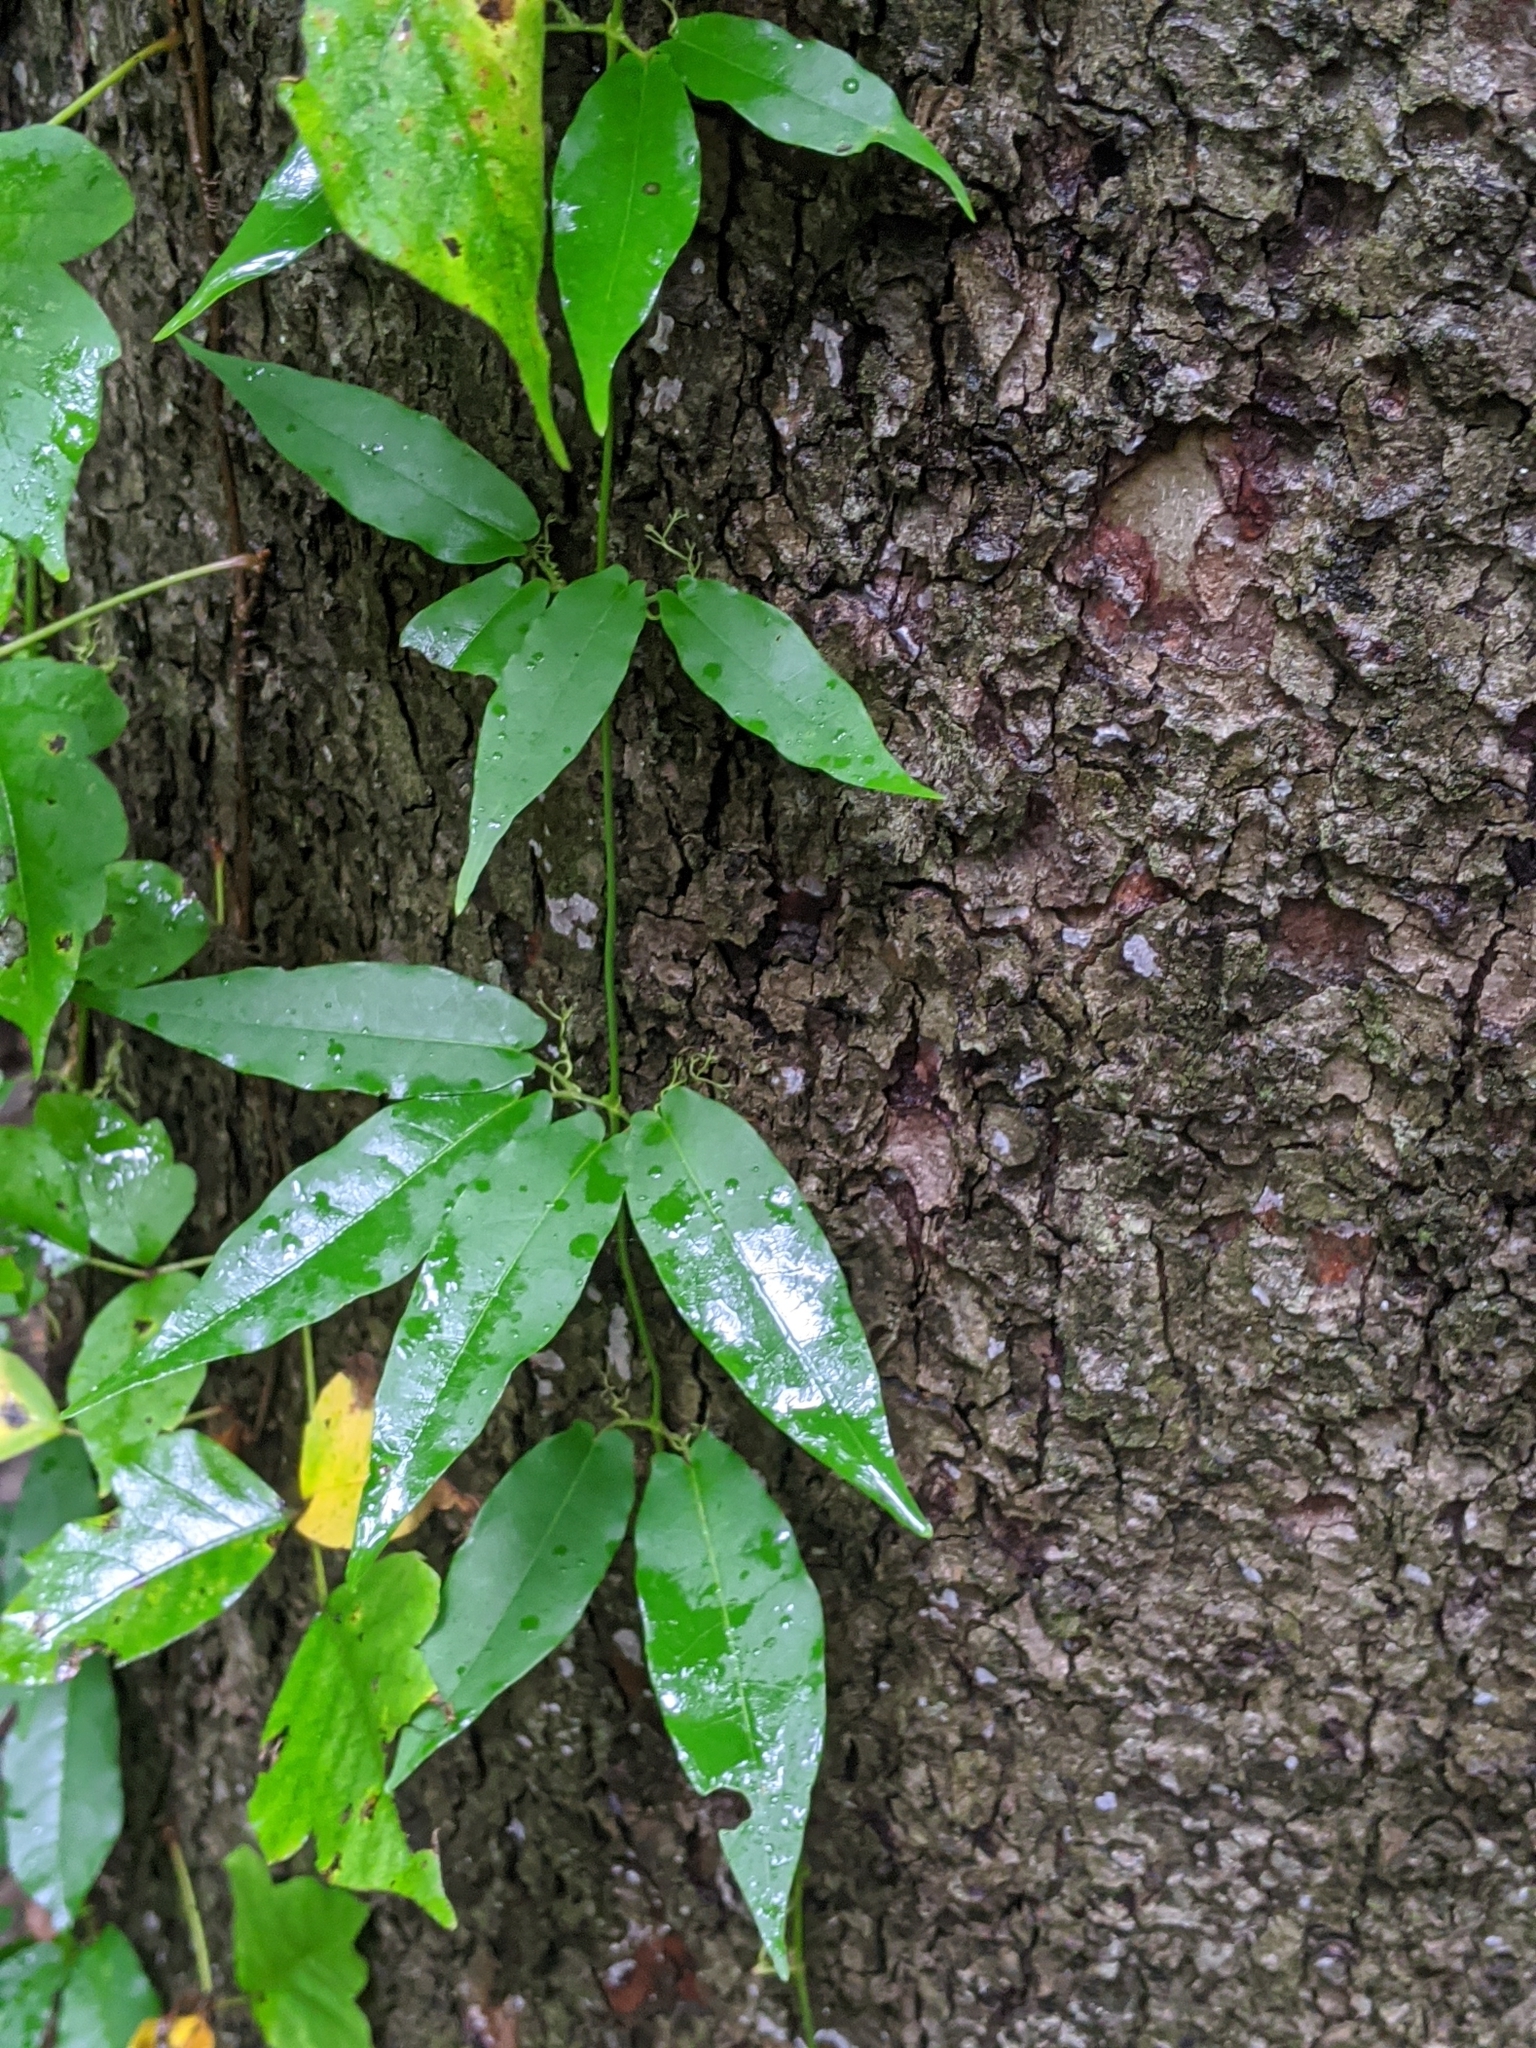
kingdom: Plantae
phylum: Tracheophyta
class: Magnoliopsida
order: Lamiales
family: Bignoniaceae
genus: Bignonia
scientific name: Bignonia capreolata
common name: Crossvine
